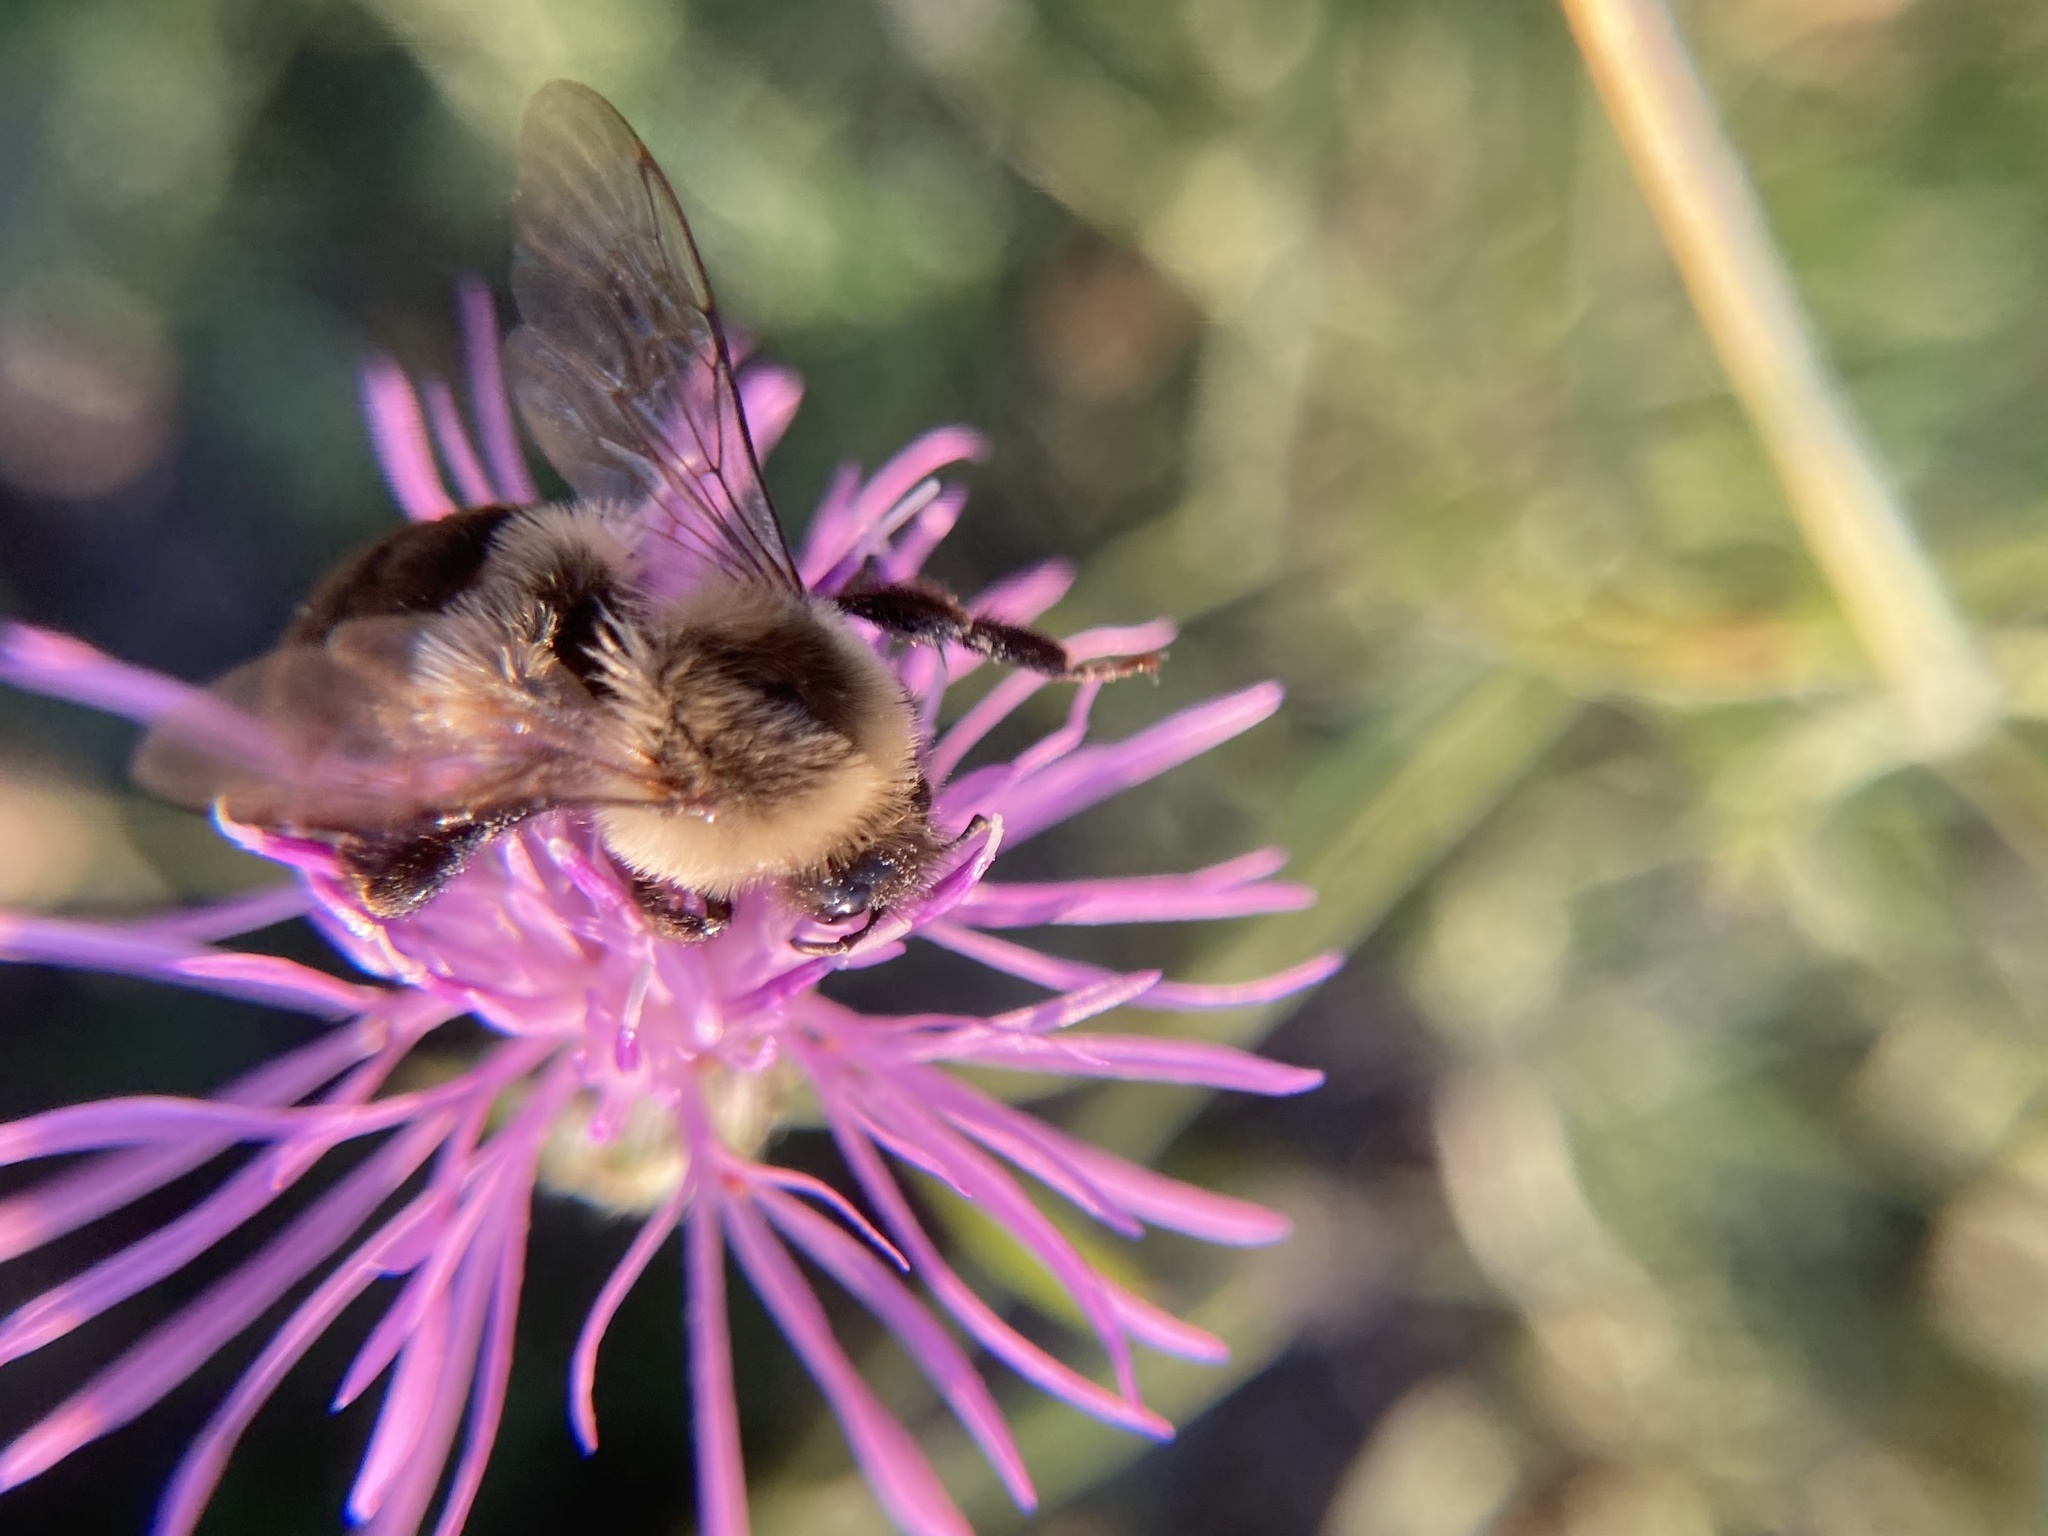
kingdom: Animalia
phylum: Arthropoda
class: Insecta
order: Hymenoptera
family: Apidae
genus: Bombus
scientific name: Bombus impatiens
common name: Common eastern bumble bee
